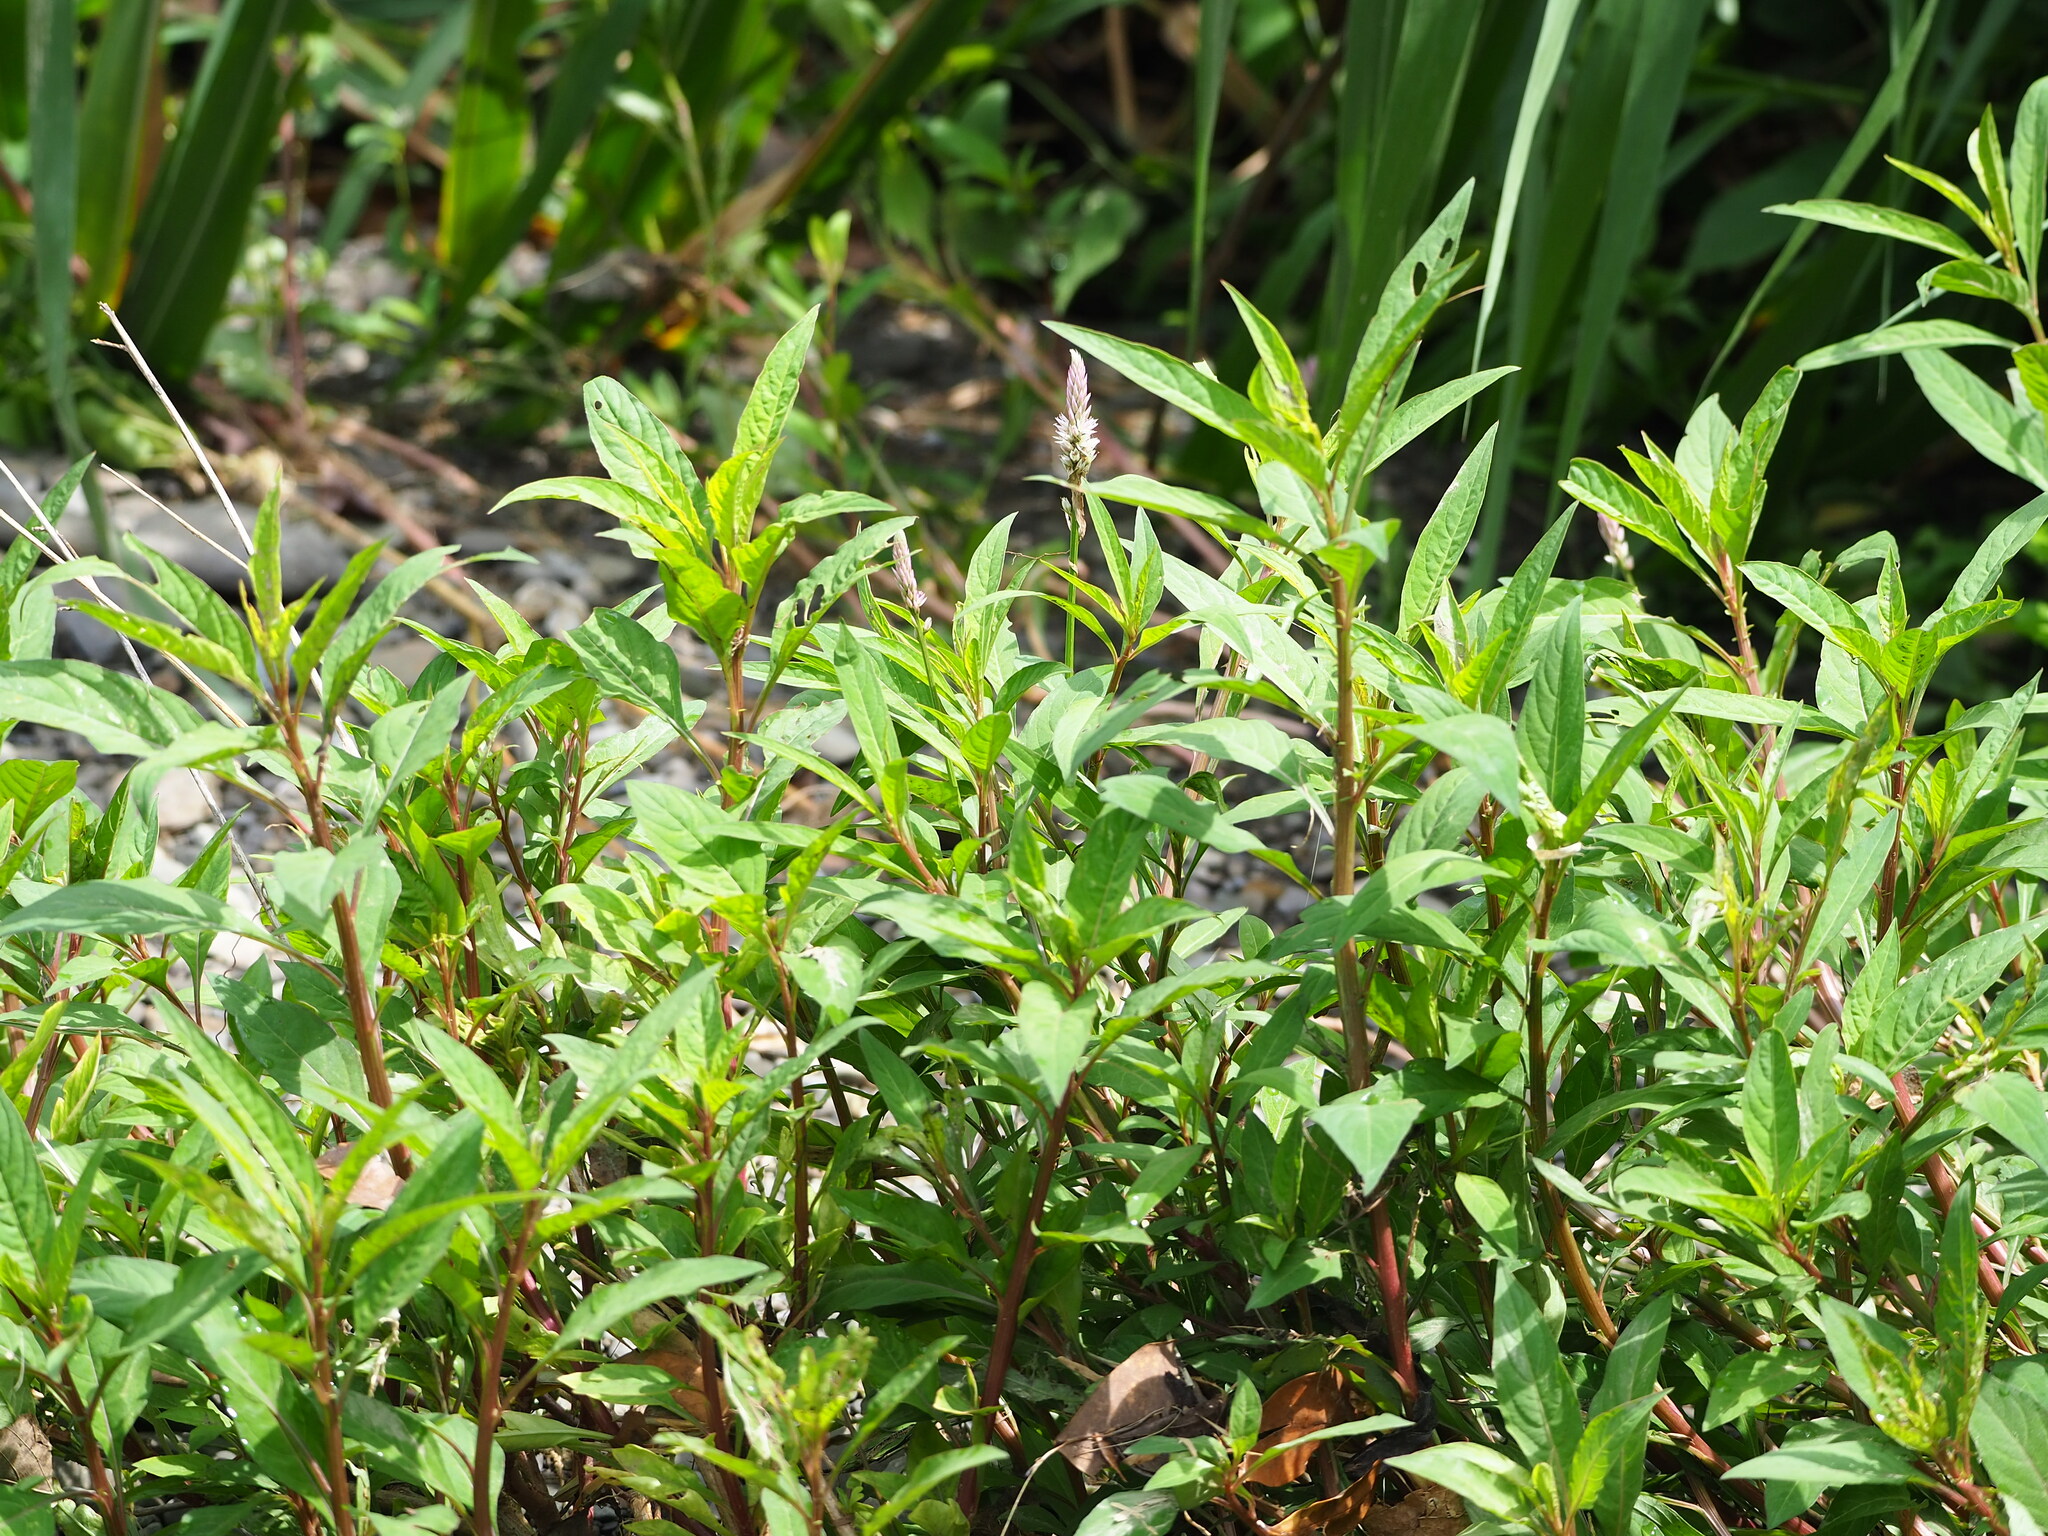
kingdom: Plantae
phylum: Tracheophyta
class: Magnoliopsida
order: Caryophyllales
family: Amaranthaceae
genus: Celosia
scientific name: Celosia argentea
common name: Feather cockscomb
